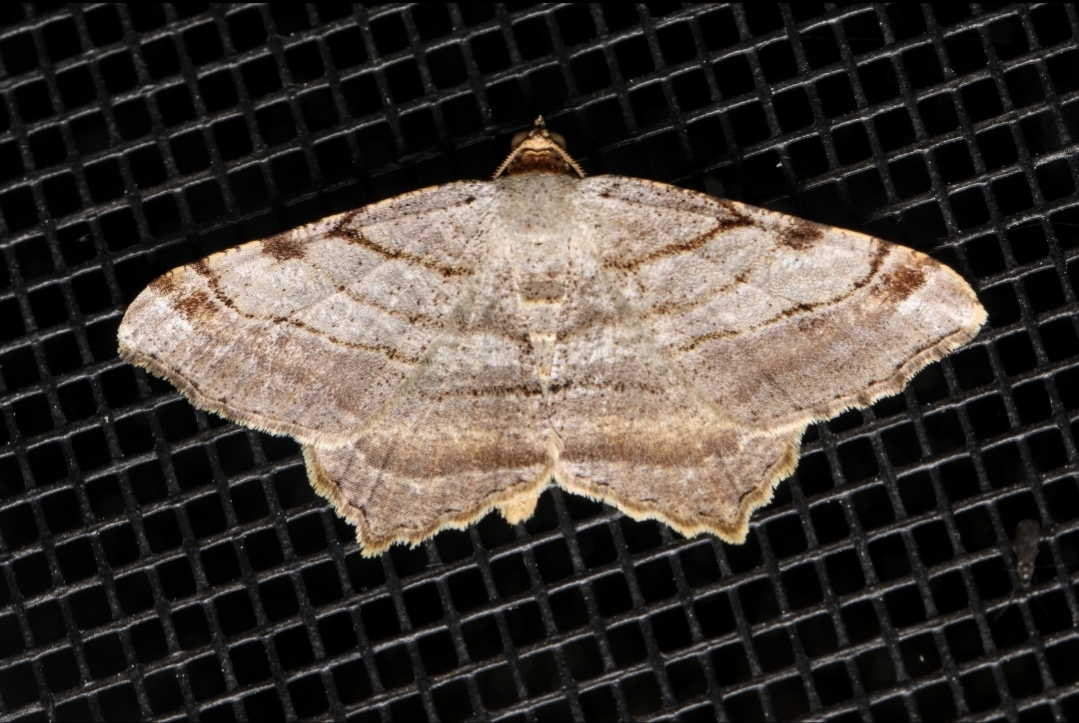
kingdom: Animalia
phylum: Arthropoda
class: Insecta
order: Lepidoptera
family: Geometridae
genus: Macaria
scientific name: Macaria multilineata
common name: Many-lined angle
